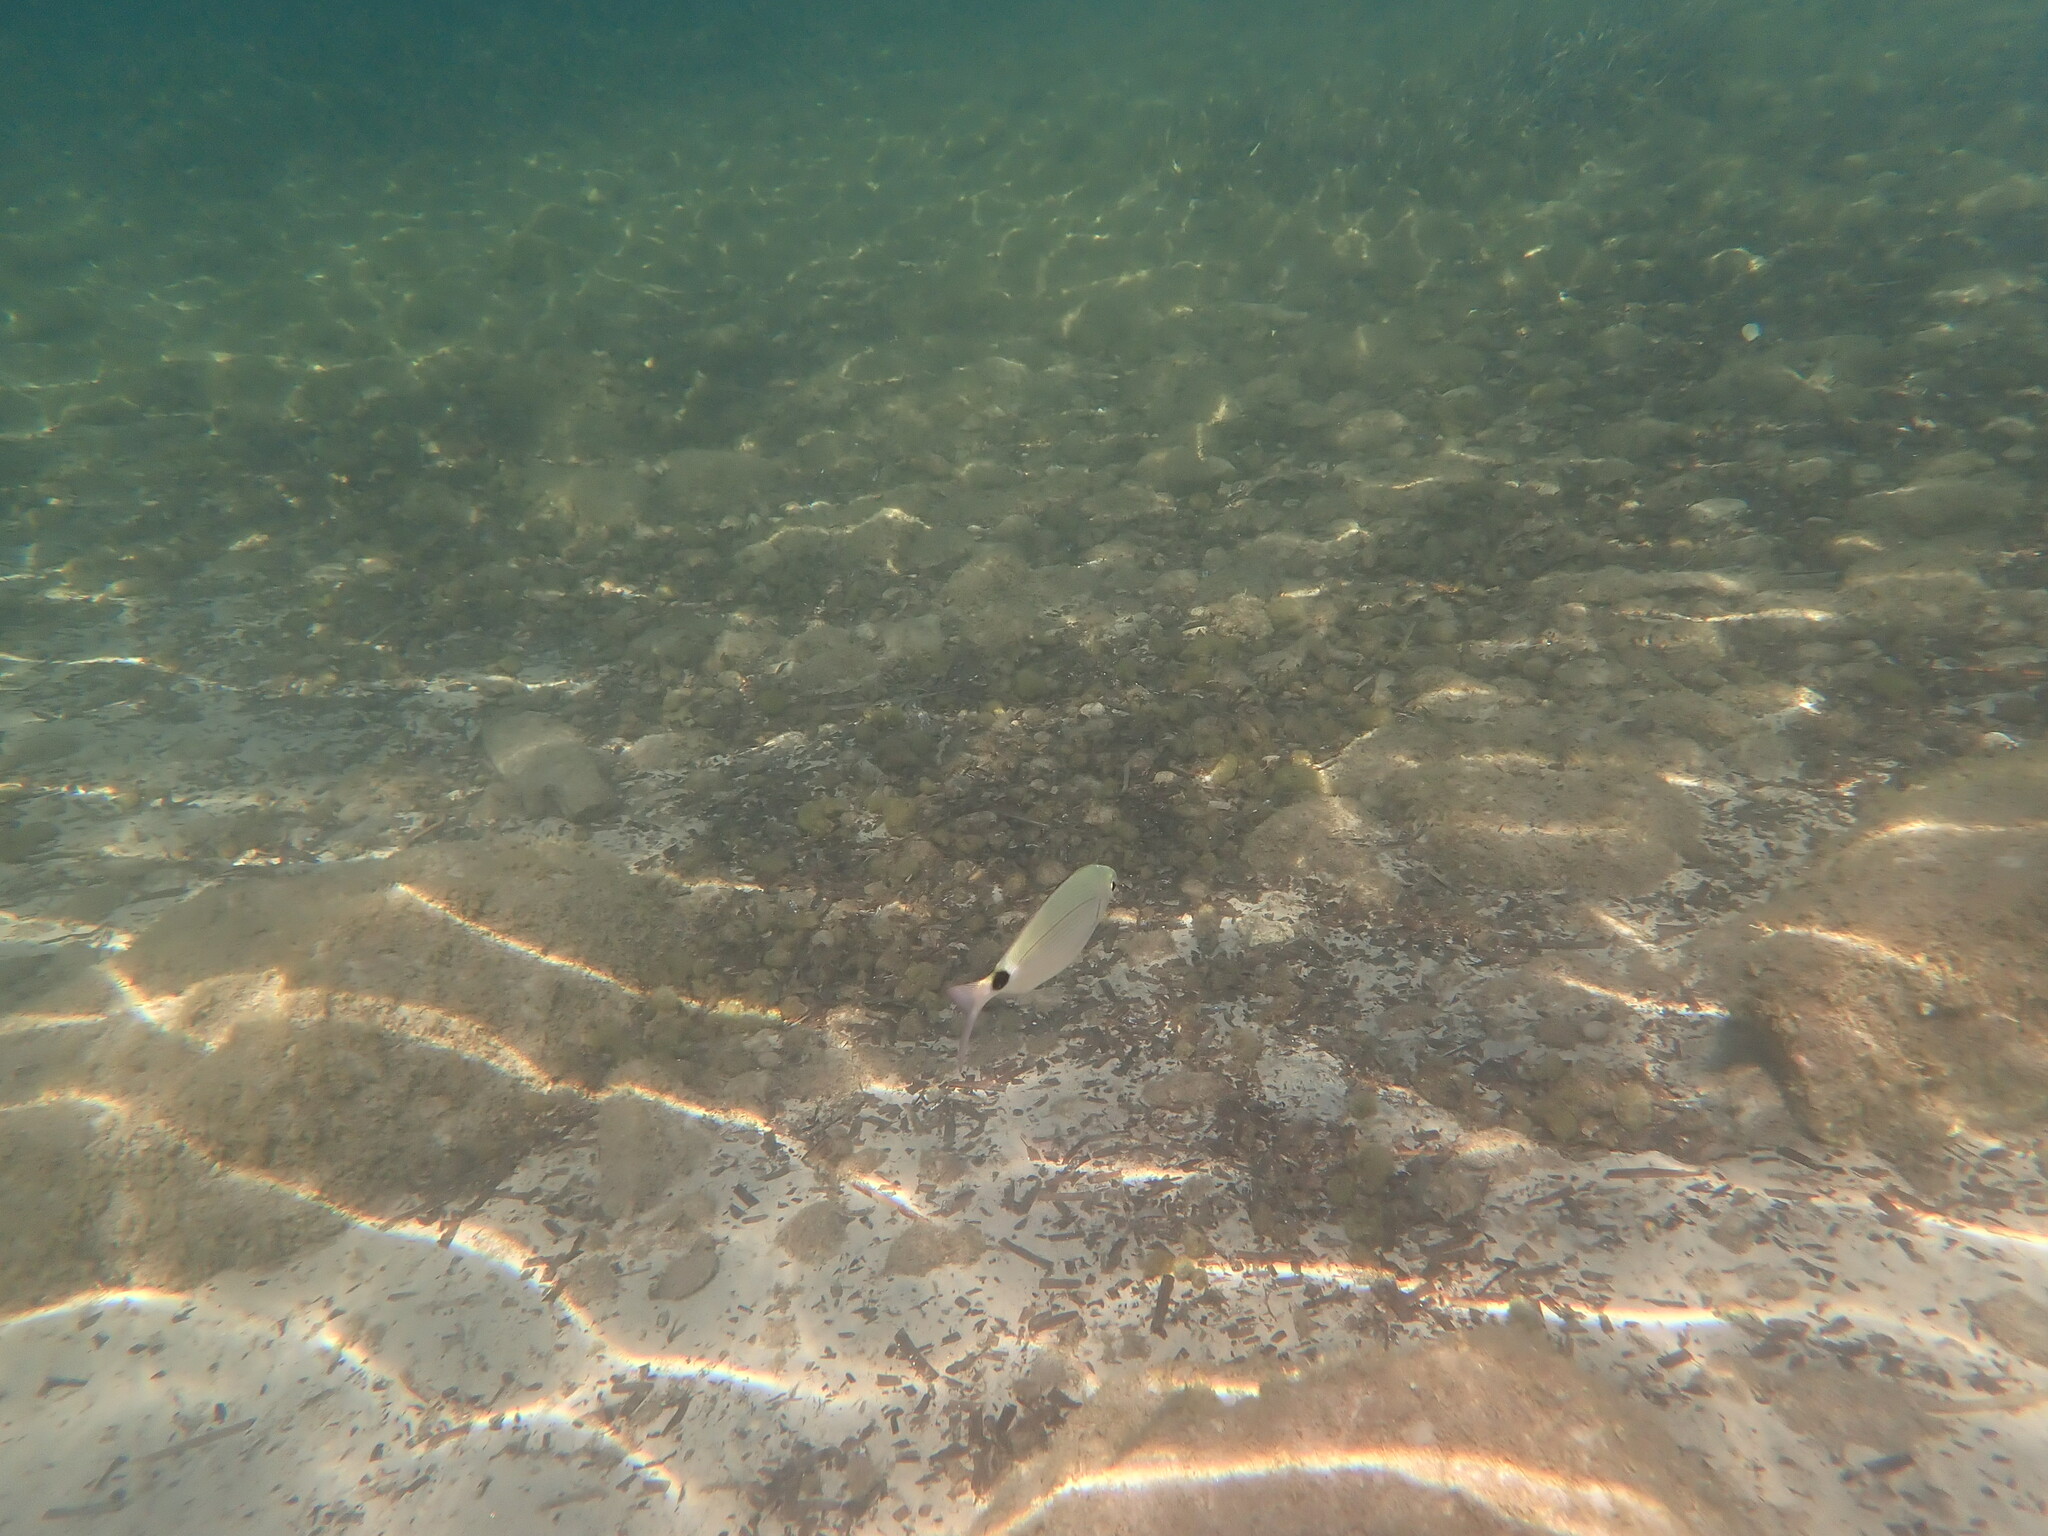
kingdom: Animalia
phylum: Chordata
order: Perciformes
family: Sparidae
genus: Oblada
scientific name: Oblada melanura
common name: Saddled seabream
